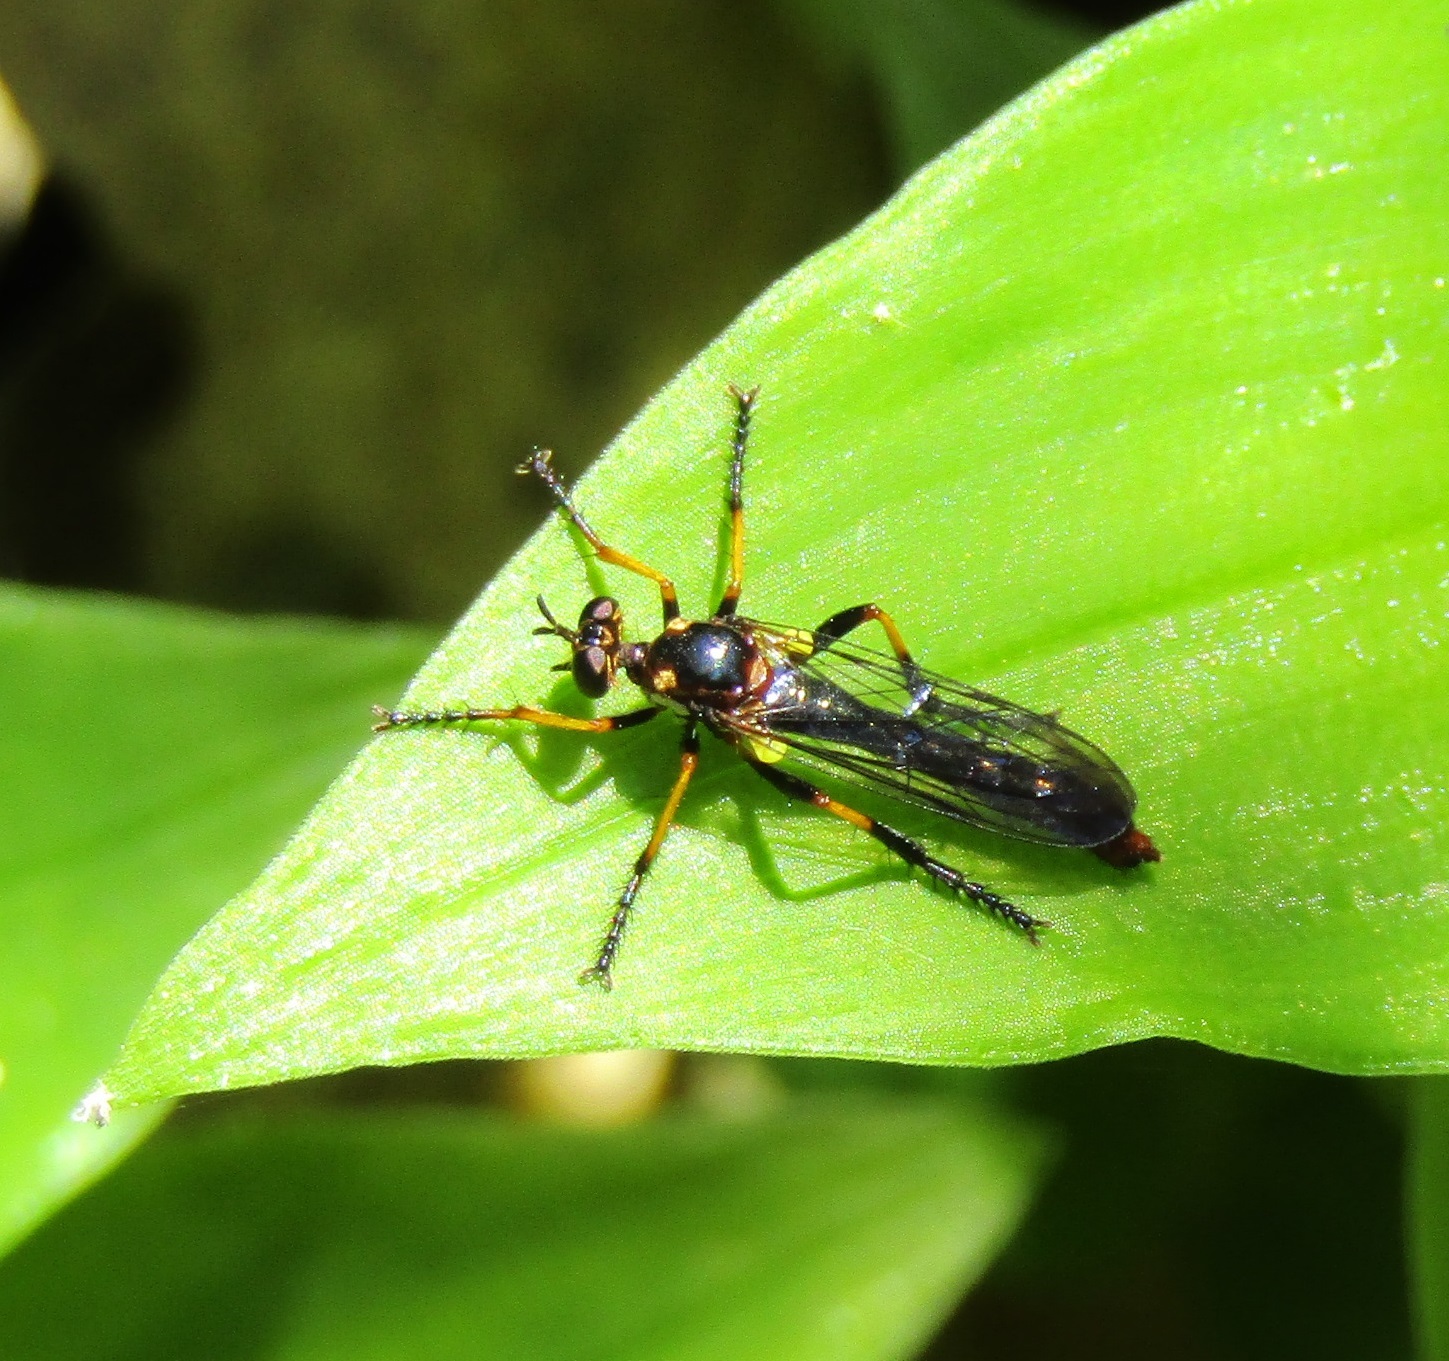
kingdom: Animalia
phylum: Arthropoda
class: Insecta
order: Diptera
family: Asilidae
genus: Saropogon
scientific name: Saropogon fascipes
